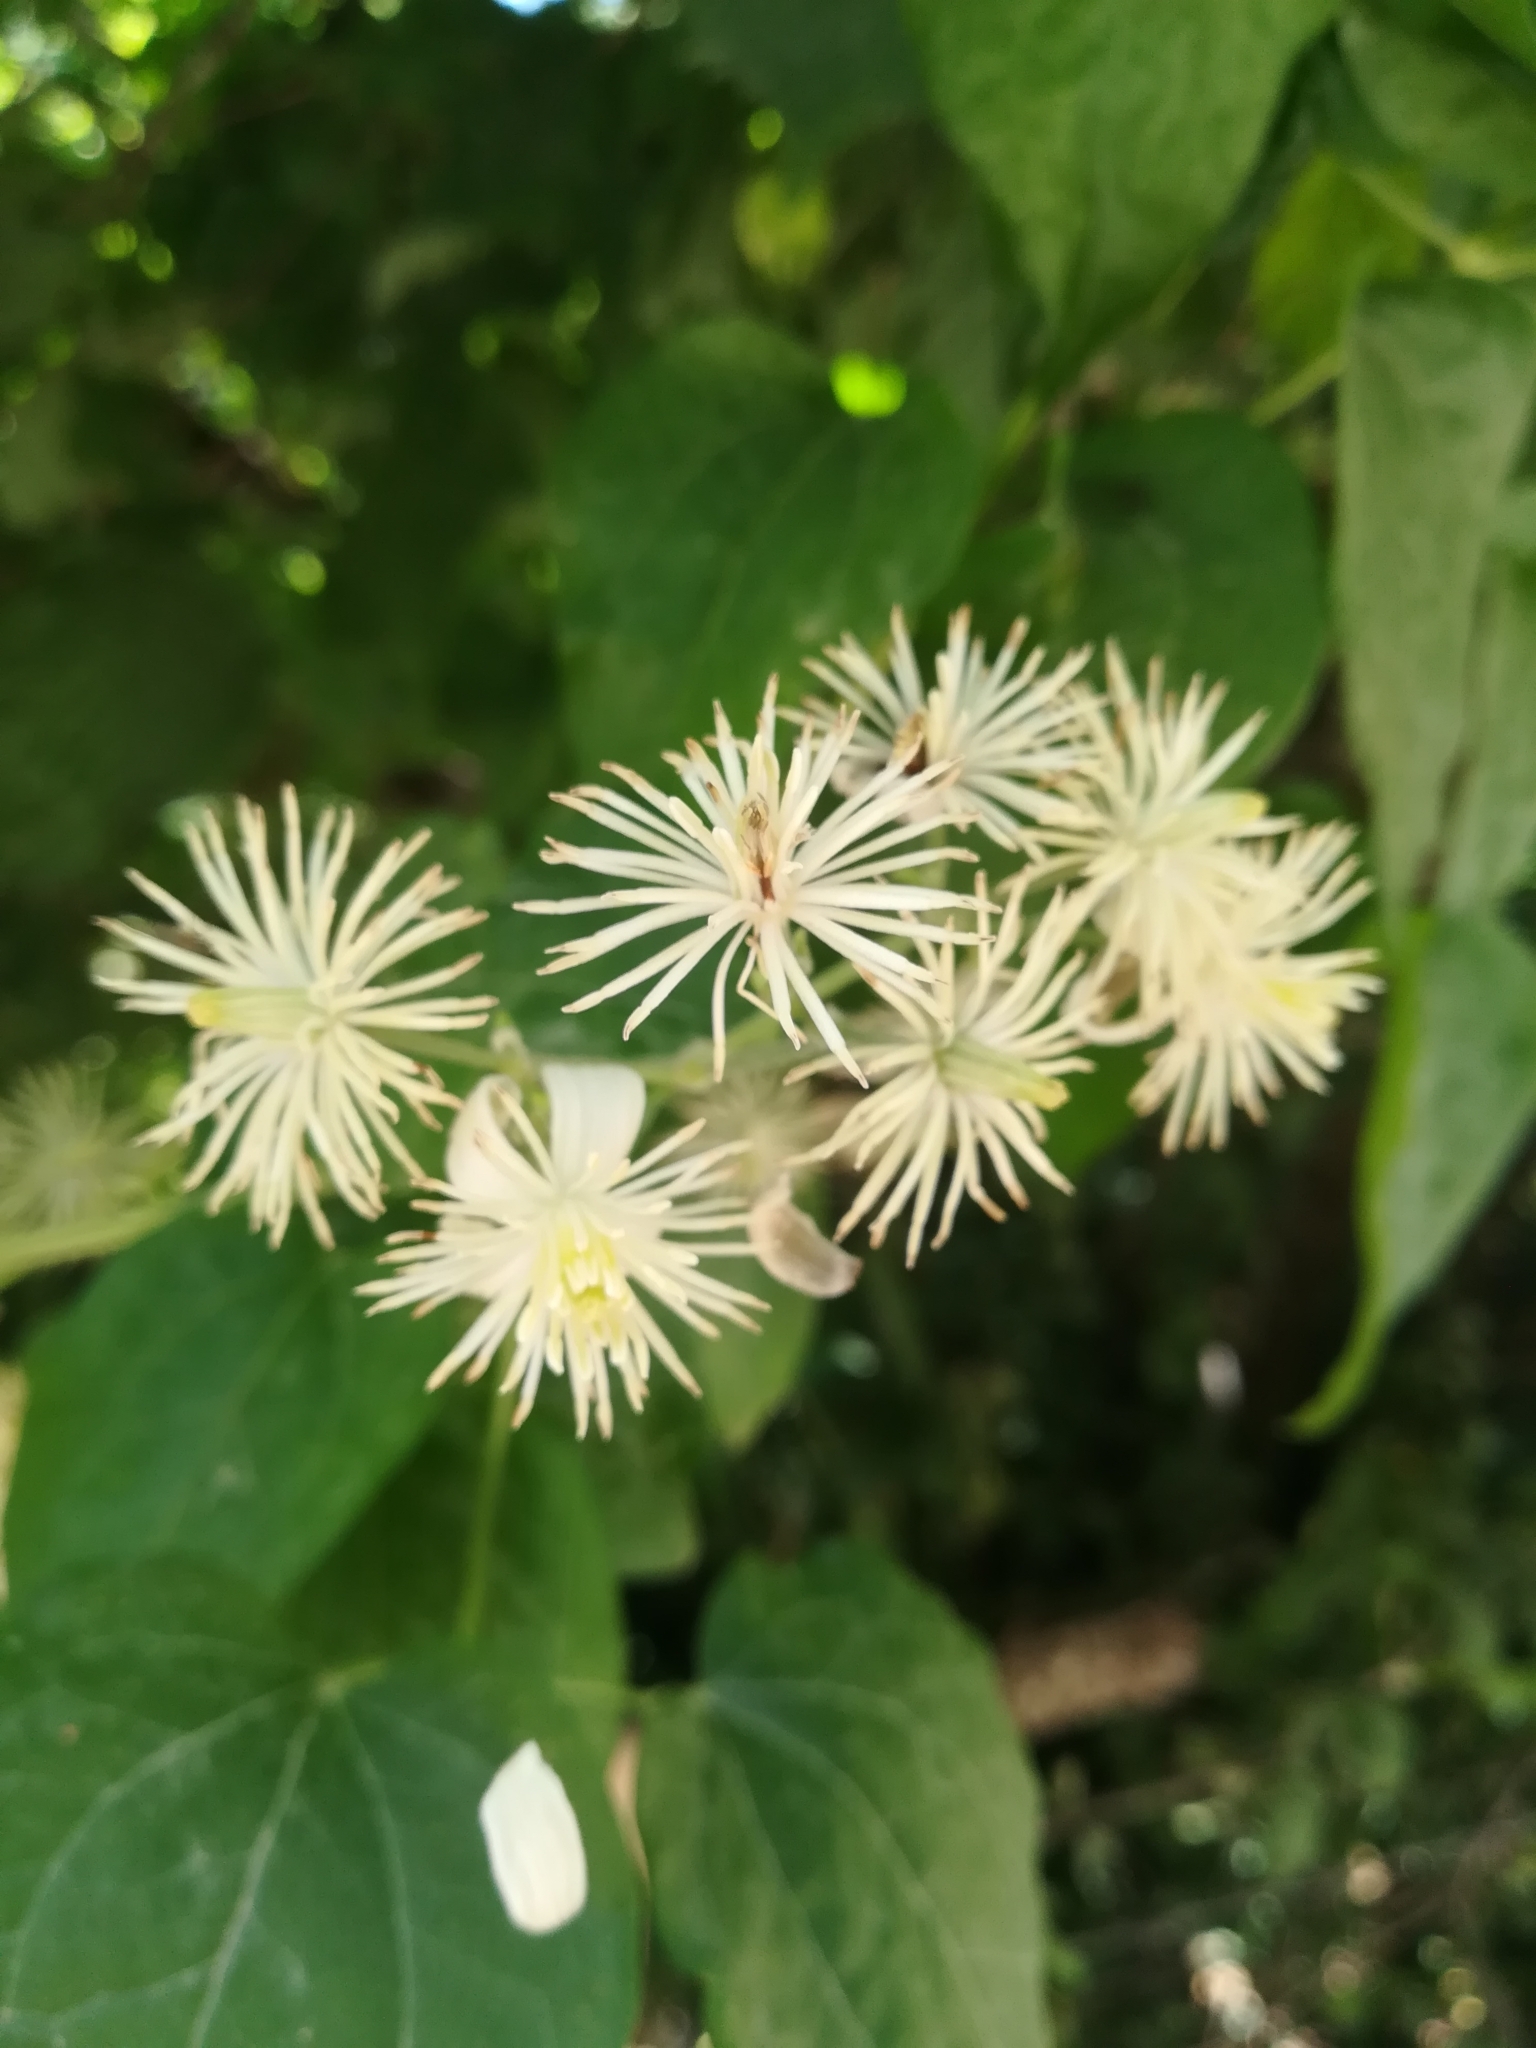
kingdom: Plantae
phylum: Tracheophyta
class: Magnoliopsida
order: Ranunculales
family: Ranunculaceae
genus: Clematis
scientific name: Clematis vitalba
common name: Evergreen clematis
